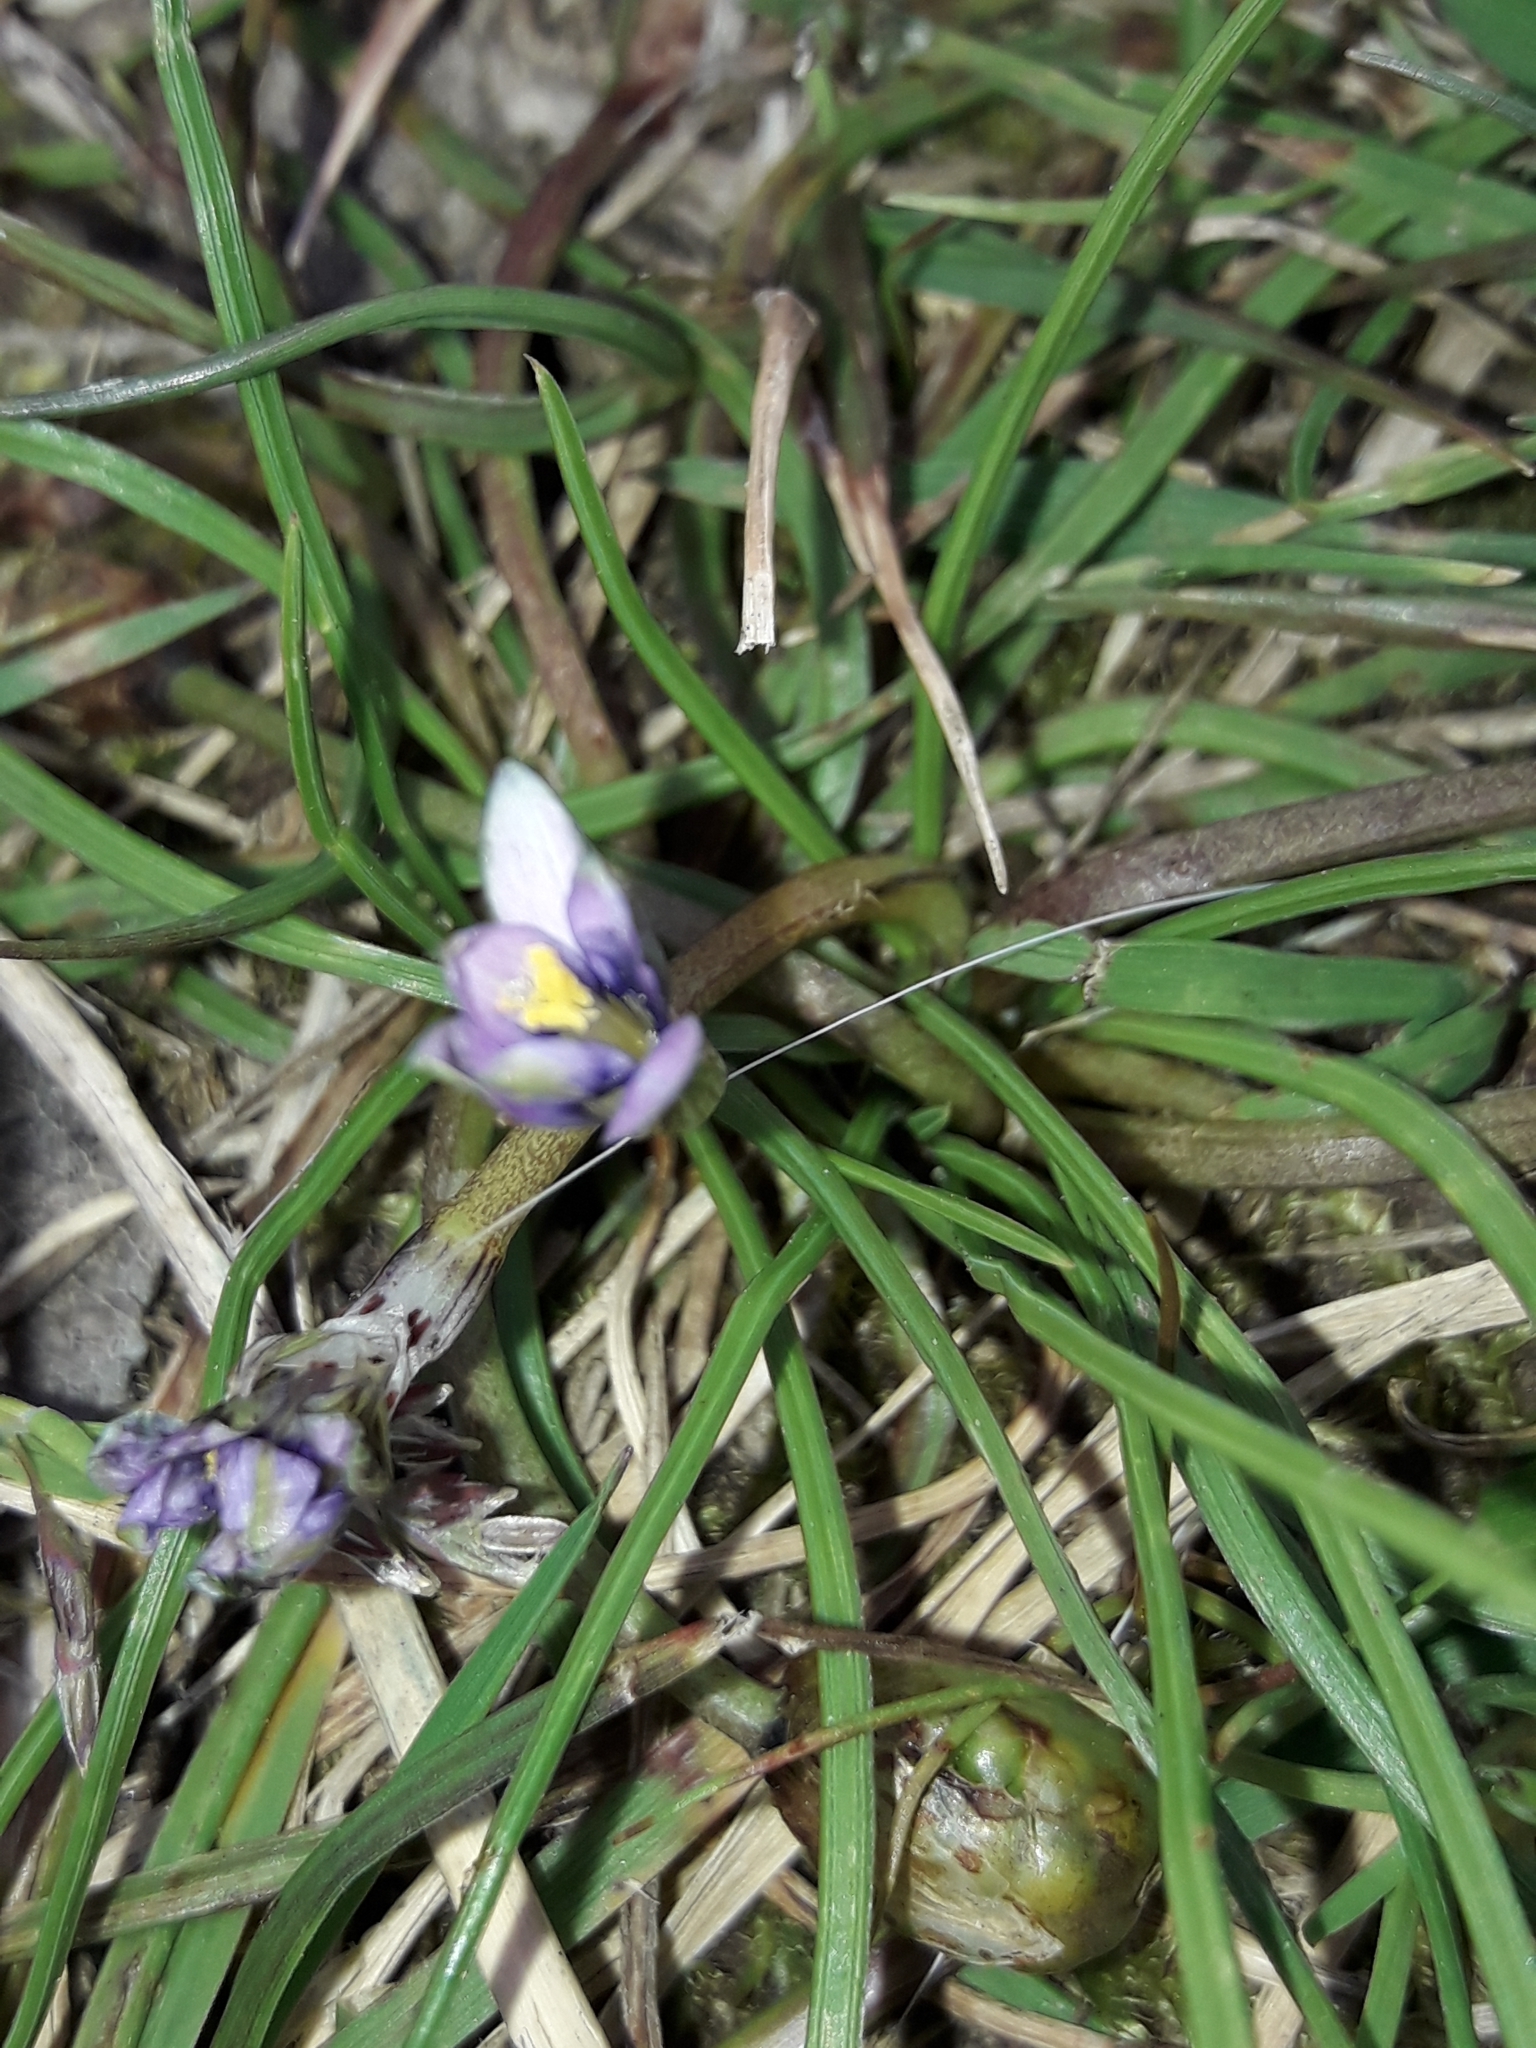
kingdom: Plantae
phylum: Tracheophyta
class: Liliopsida
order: Asparagales
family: Iridaceae
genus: Romulea
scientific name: Romulea minutiflora
